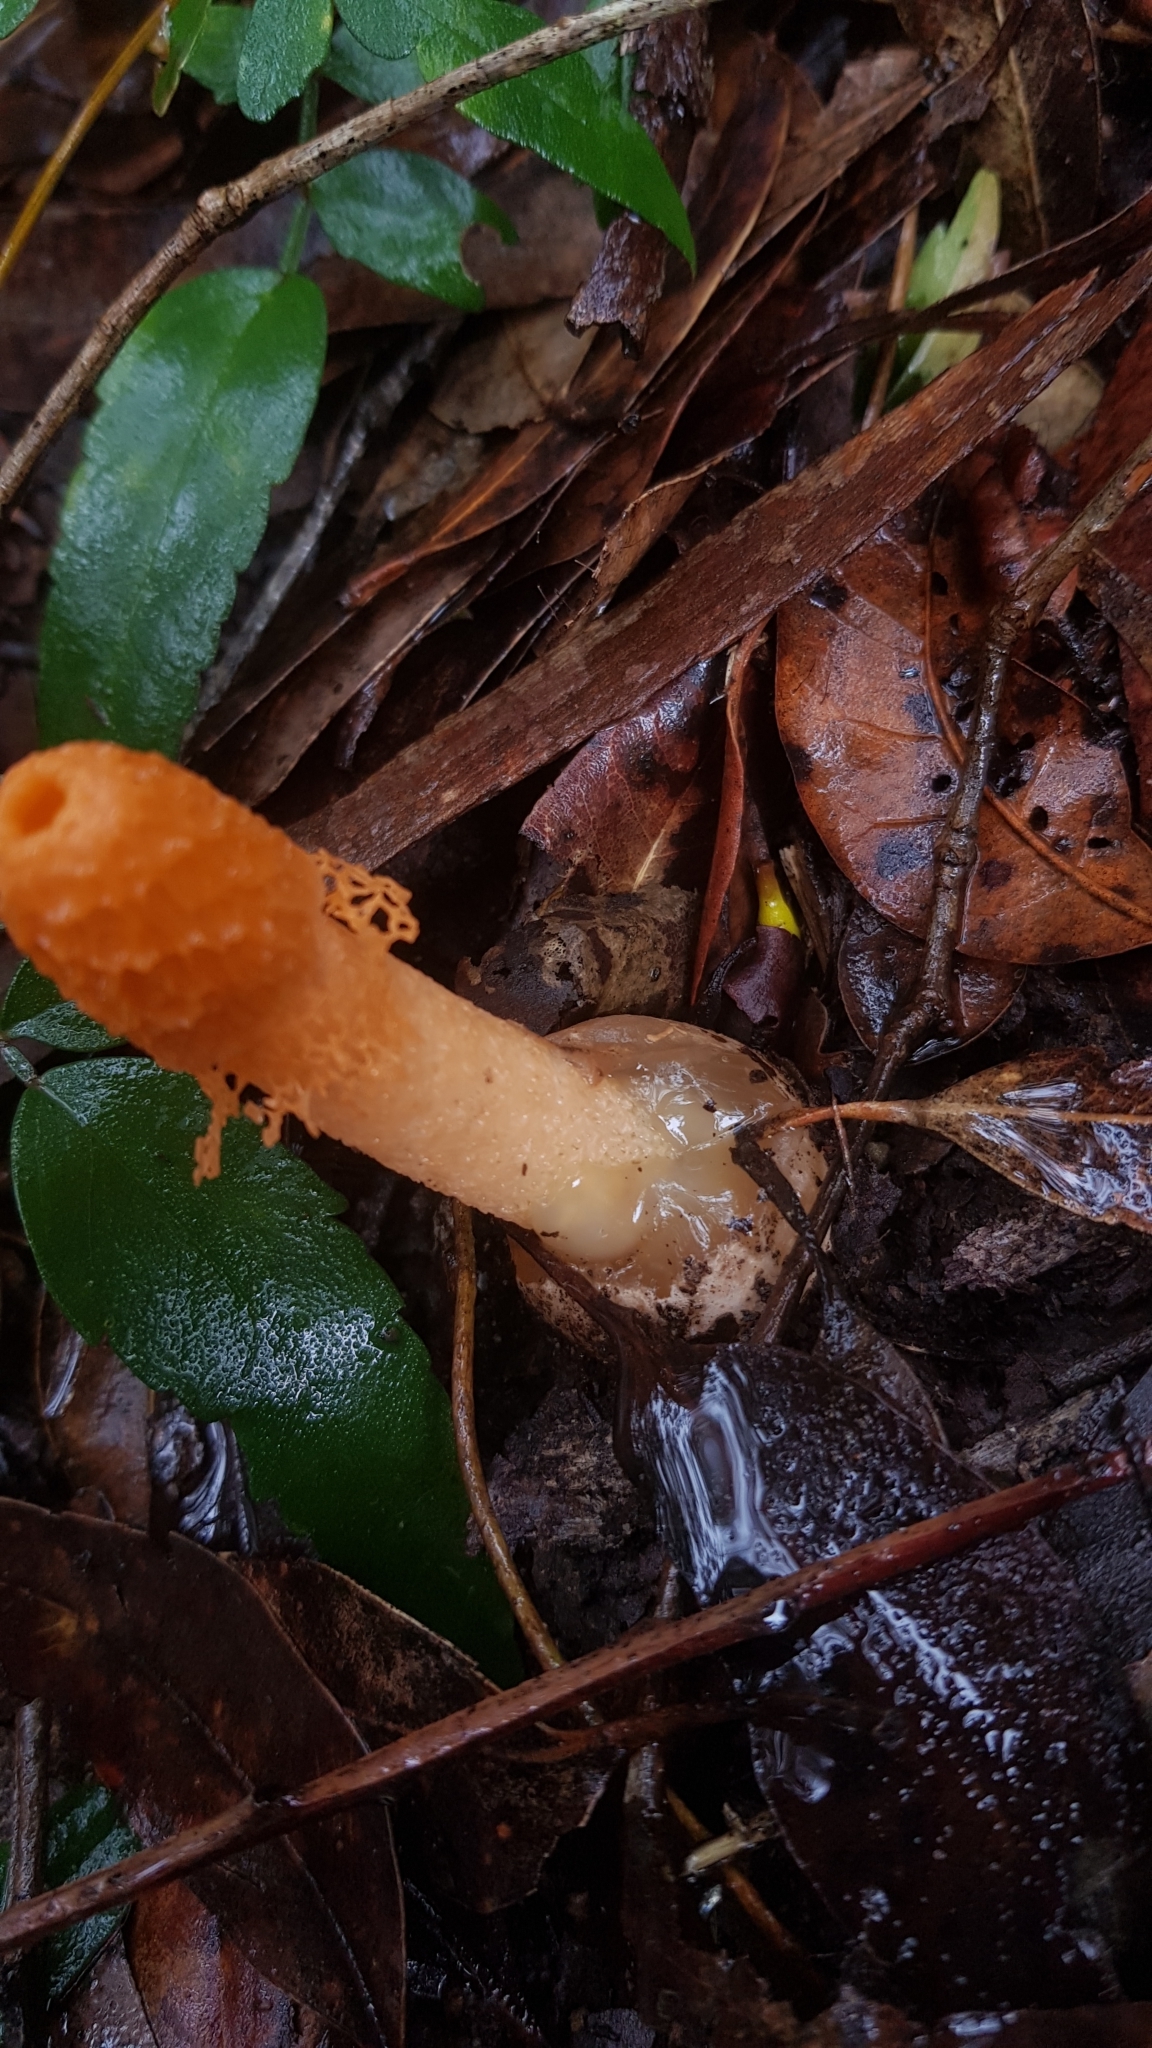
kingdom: Fungi
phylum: Basidiomycota
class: Agaricomycetes
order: Phallales
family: Phallaceae
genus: Phallus
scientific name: Phallus multicolor
